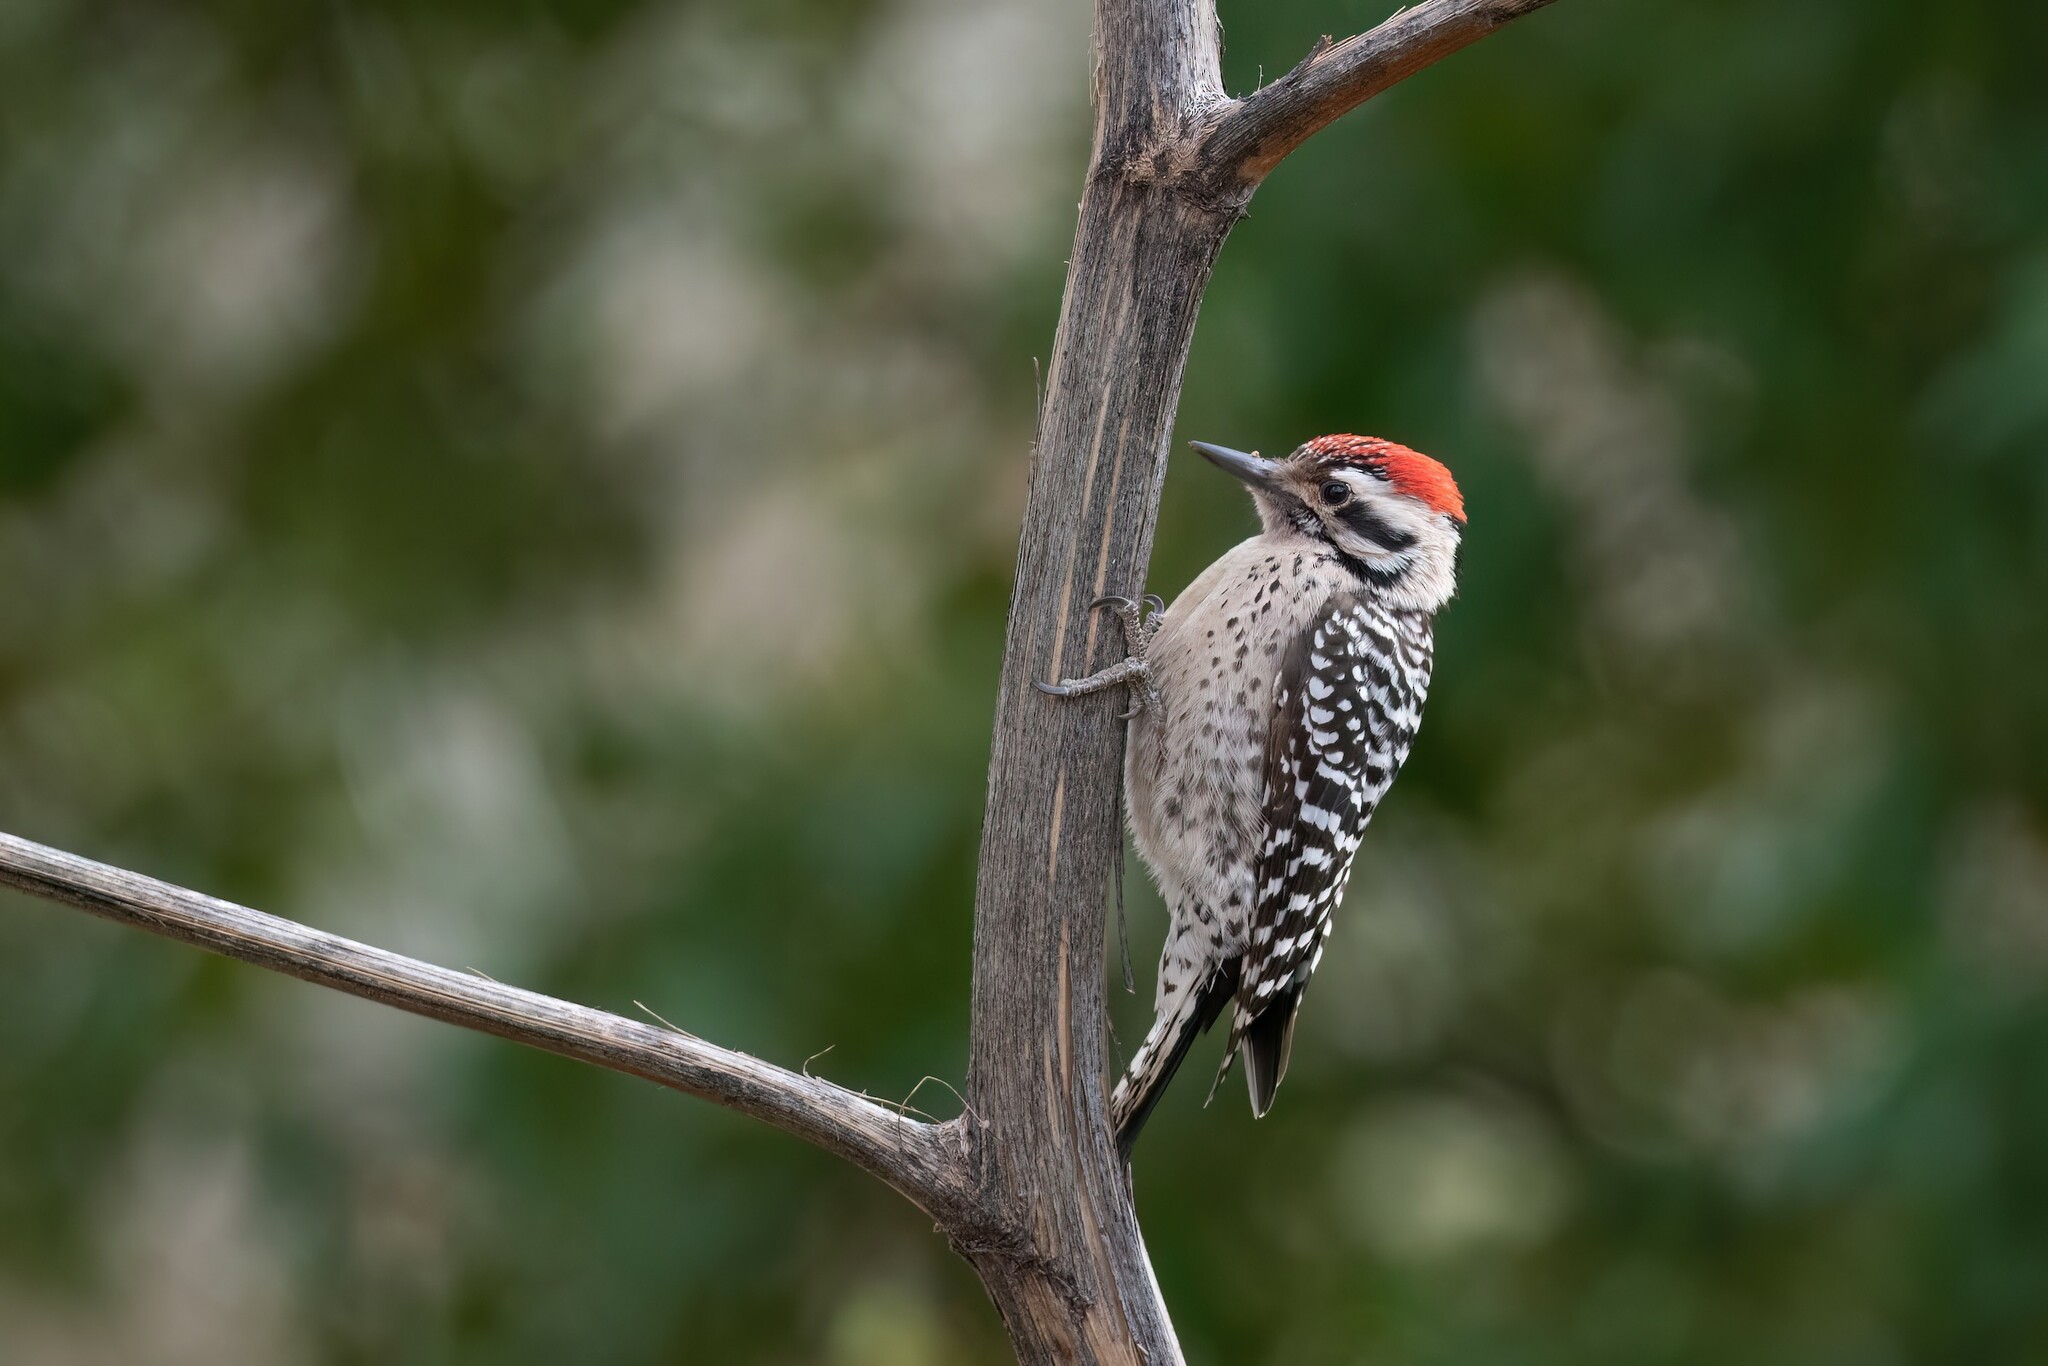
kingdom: Animalia
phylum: Chordata
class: Aves
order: Piciformes
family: Picidae
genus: Dryobates
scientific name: Dryobates scalaris
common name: Ladder-backed woodpecker
